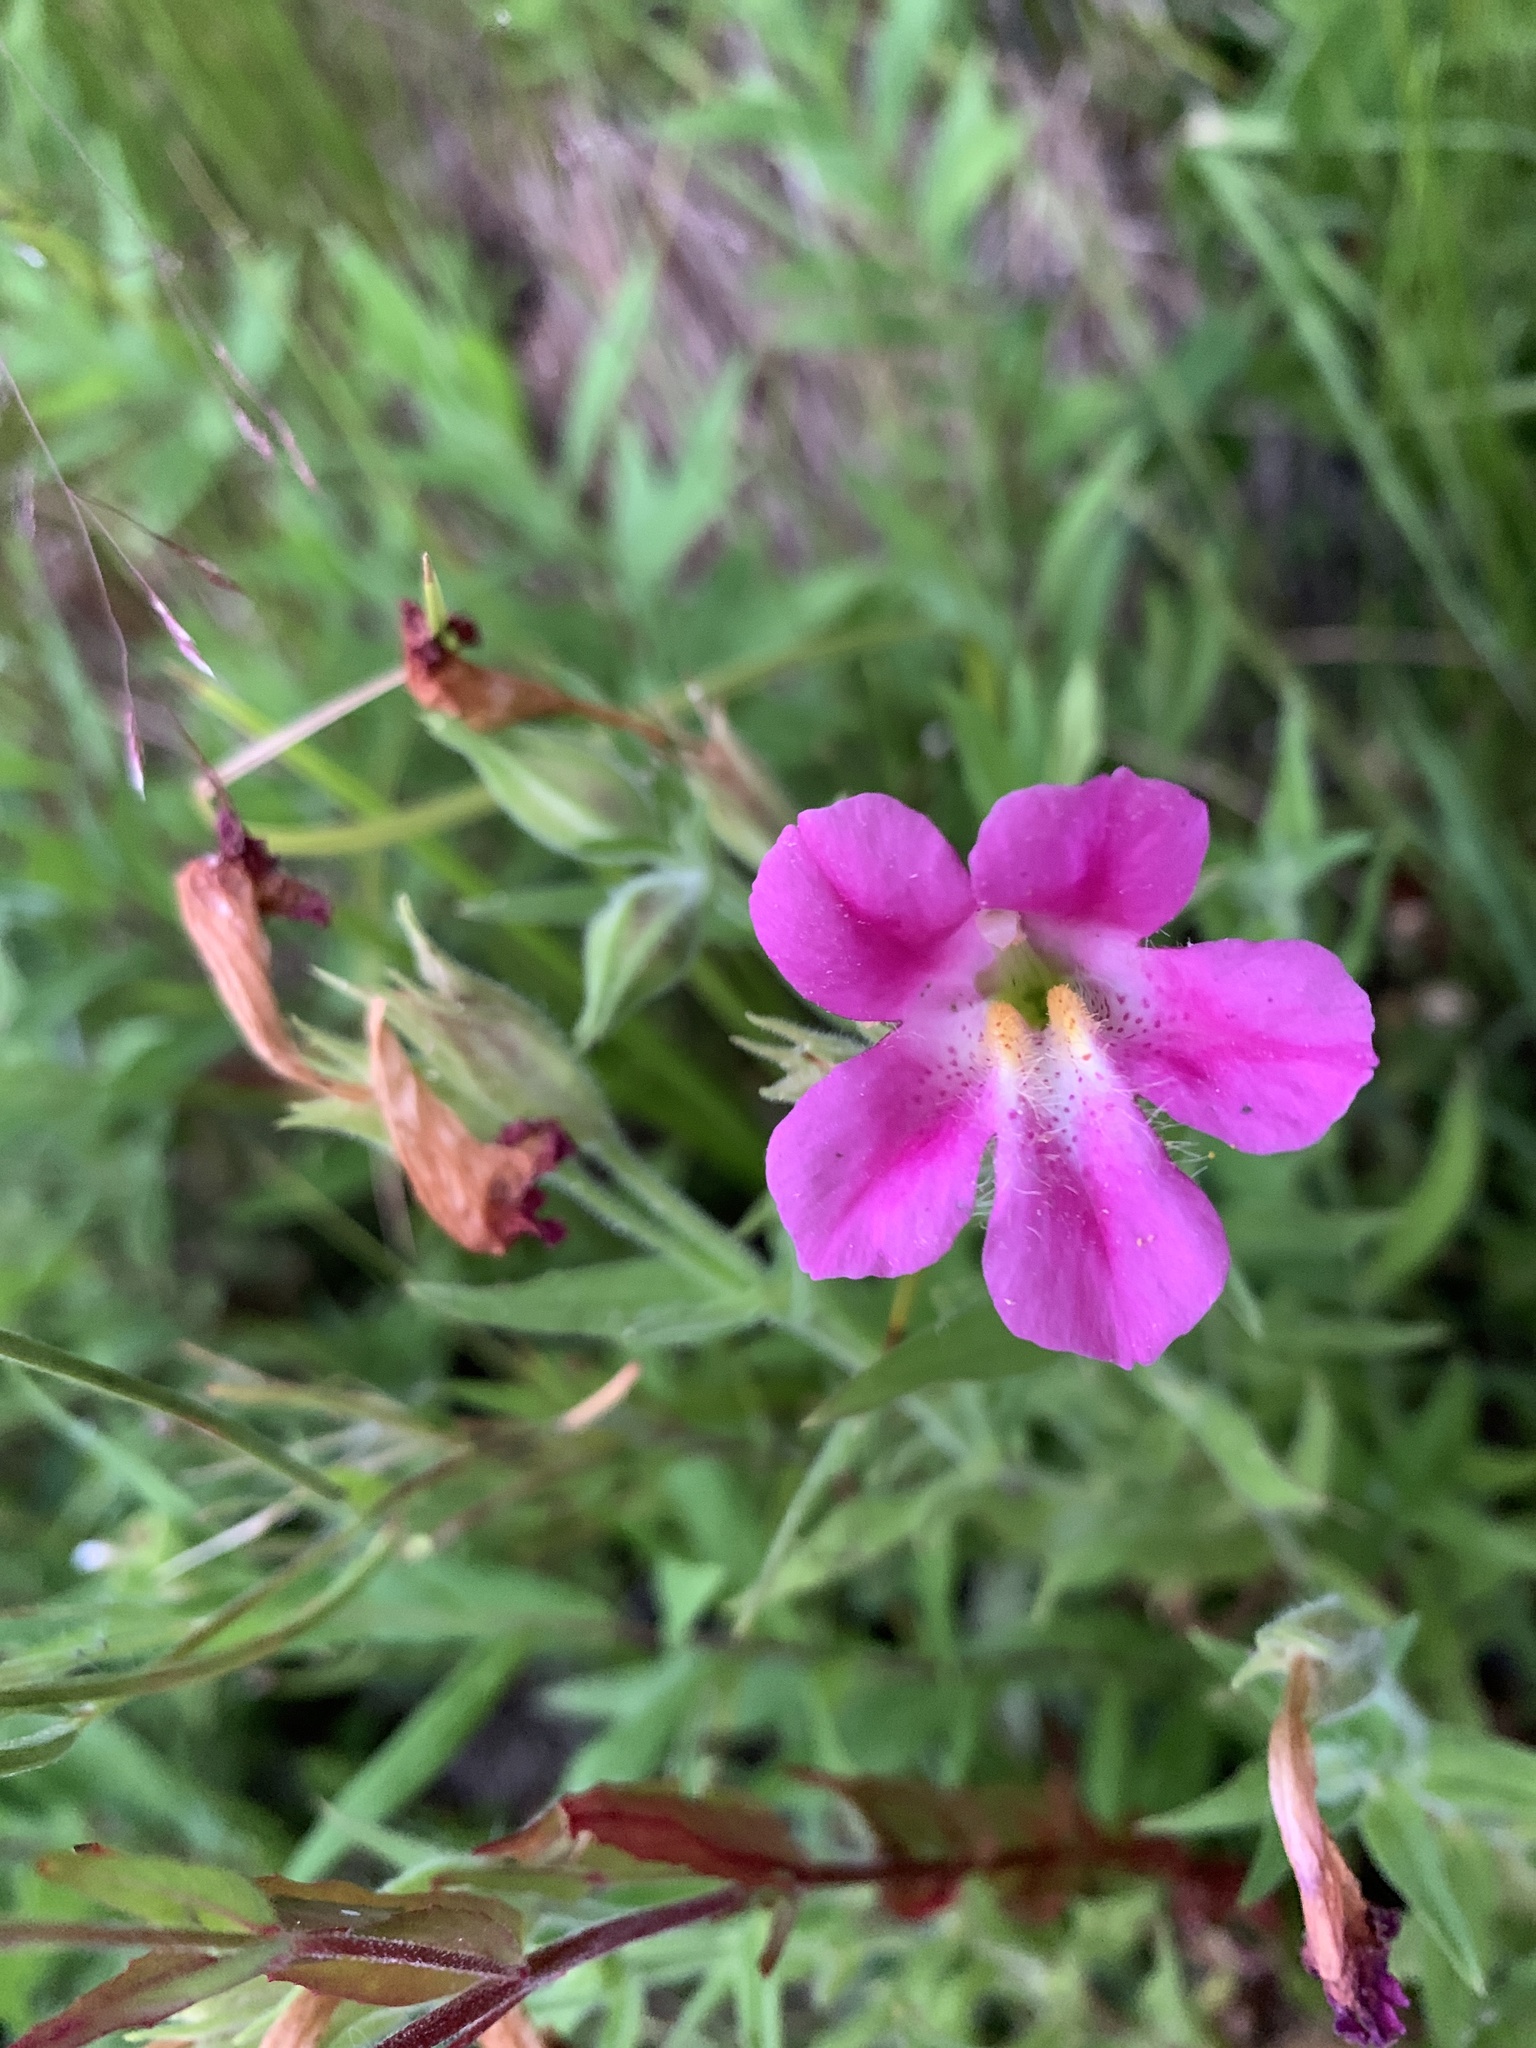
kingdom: Plantae
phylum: Tracheophyta
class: Magnoliopsida
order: Lamiales
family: Phrymaceae
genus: Erythranthe
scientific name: Erythranthe lewisii
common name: Lewis's monkey-flower
